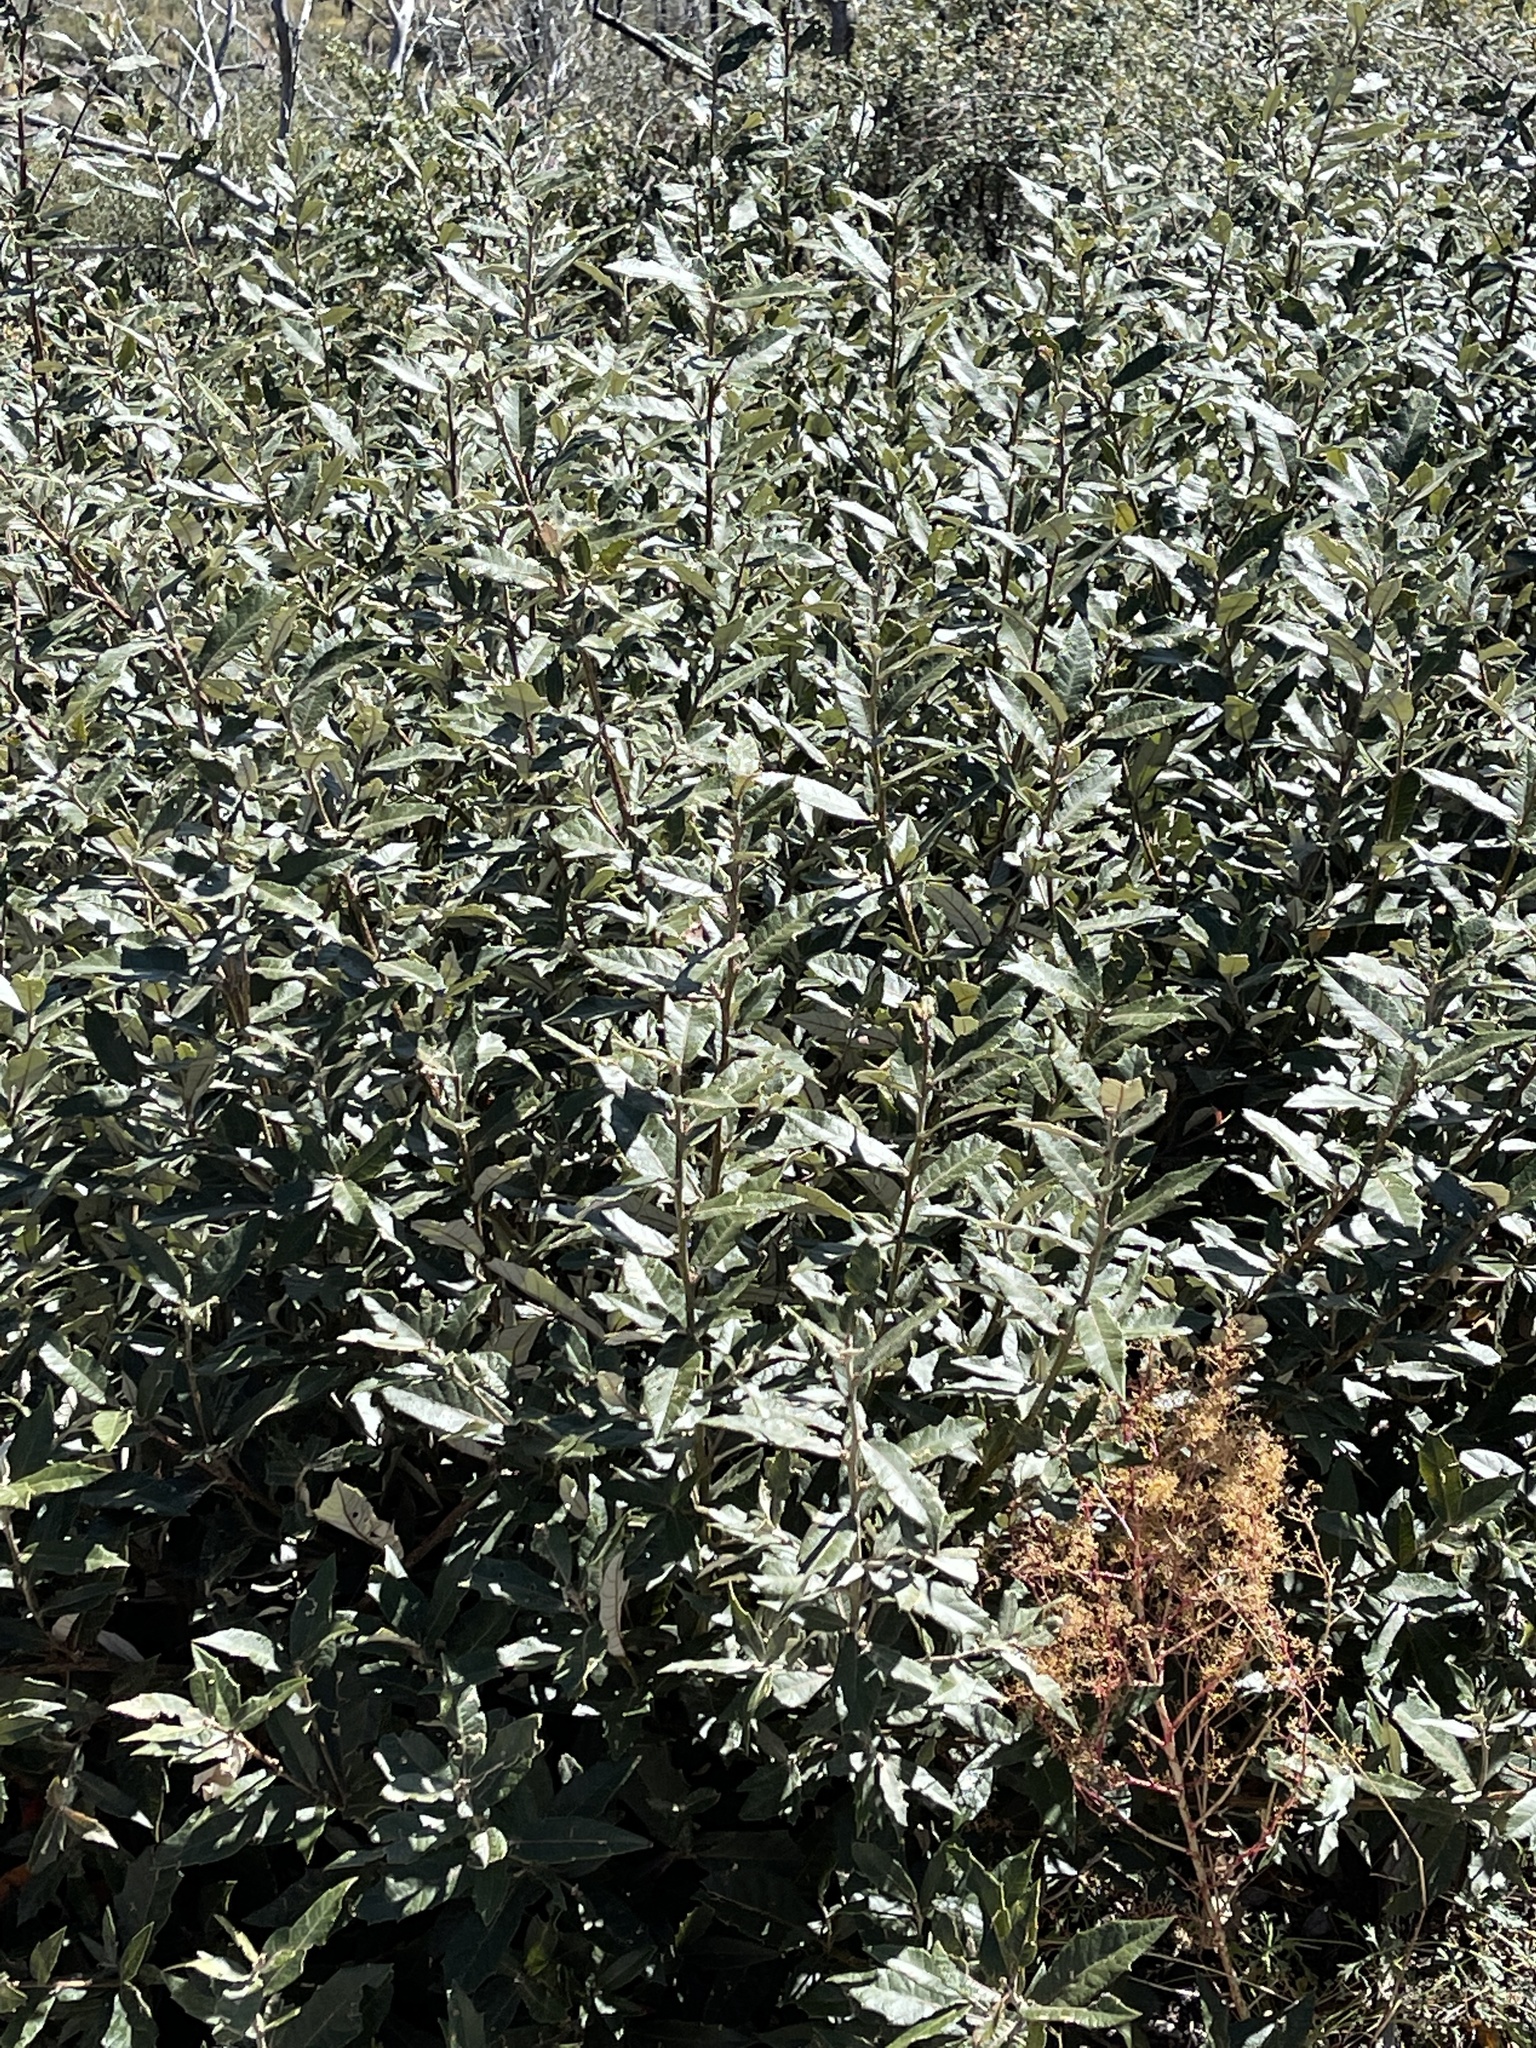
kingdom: Plantae
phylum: Tracheophyta
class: Magnoliopsida
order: Fagales
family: Fagaceae
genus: Quercus
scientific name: Quercus hypoleucoides
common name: Silverleaf oak
